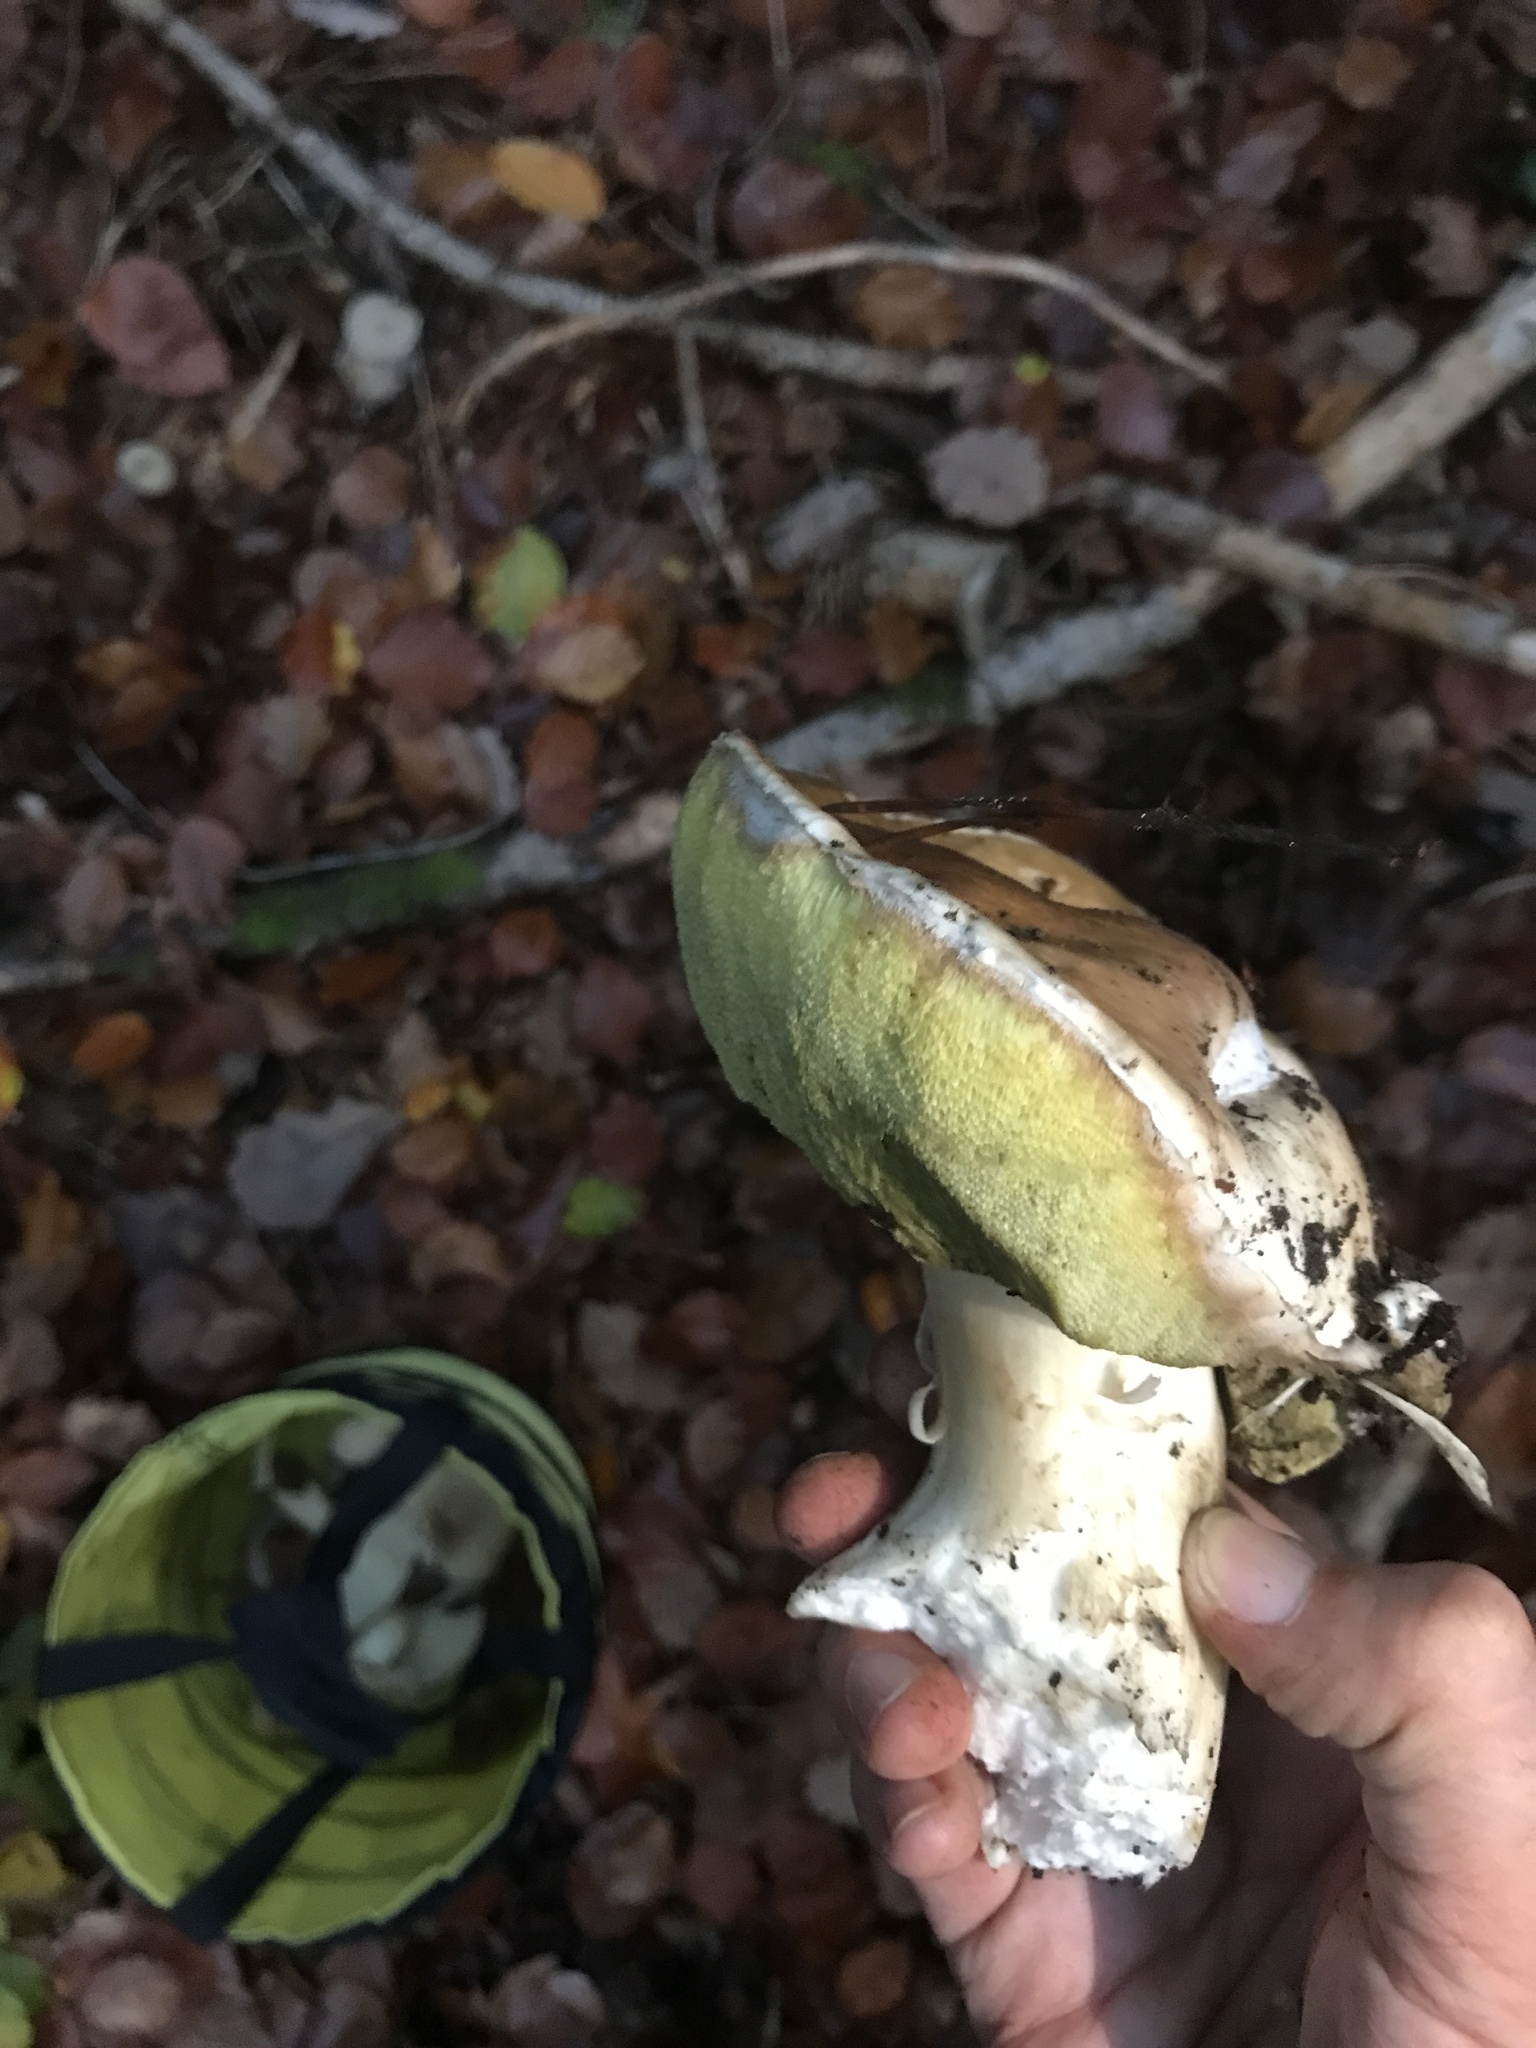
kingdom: Fungi
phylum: Basidiomycota
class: Agaricomycetes
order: Boletales
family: Boletaceae
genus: Boletus
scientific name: Boletus edulis
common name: Cep
